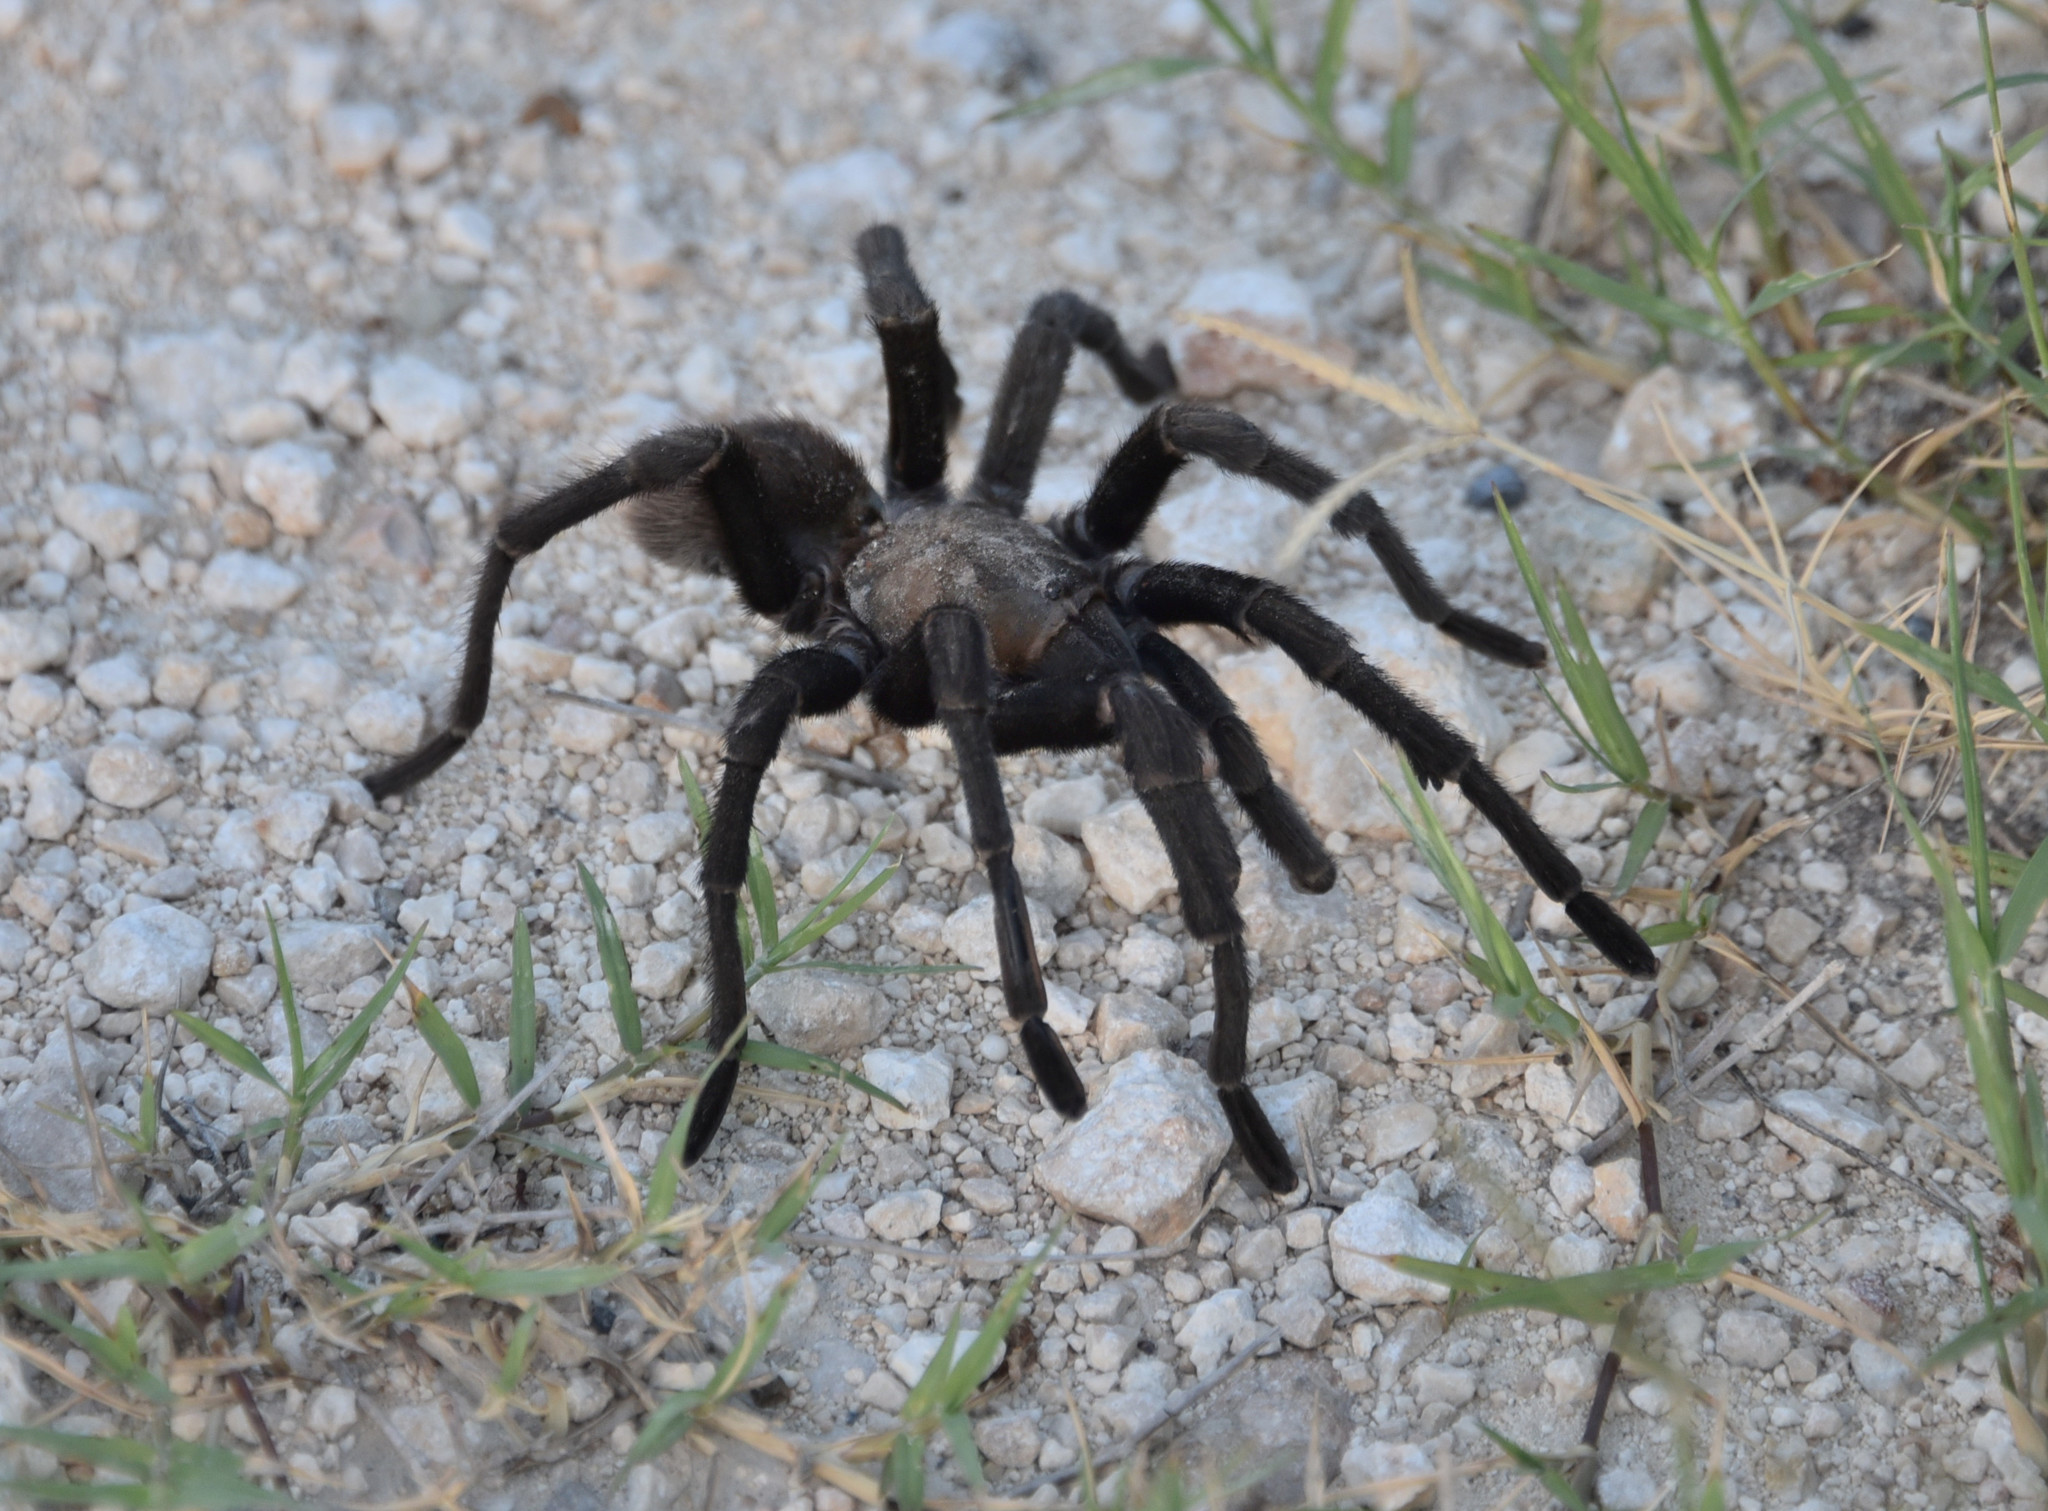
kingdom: Animalia
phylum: Arthropoda
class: Arachnida
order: Araneae
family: Theraphosidae
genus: Aphonopelma
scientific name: Aphonopelma anax
